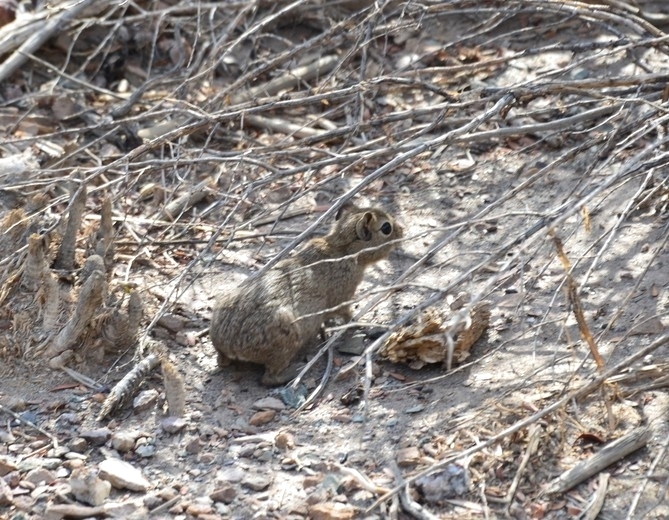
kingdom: Animalia
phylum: Chordata
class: Mammalia
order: Rodentia
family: Caviidae
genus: Microcavia
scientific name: Microcavia australis
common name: Southern mountain cavy
